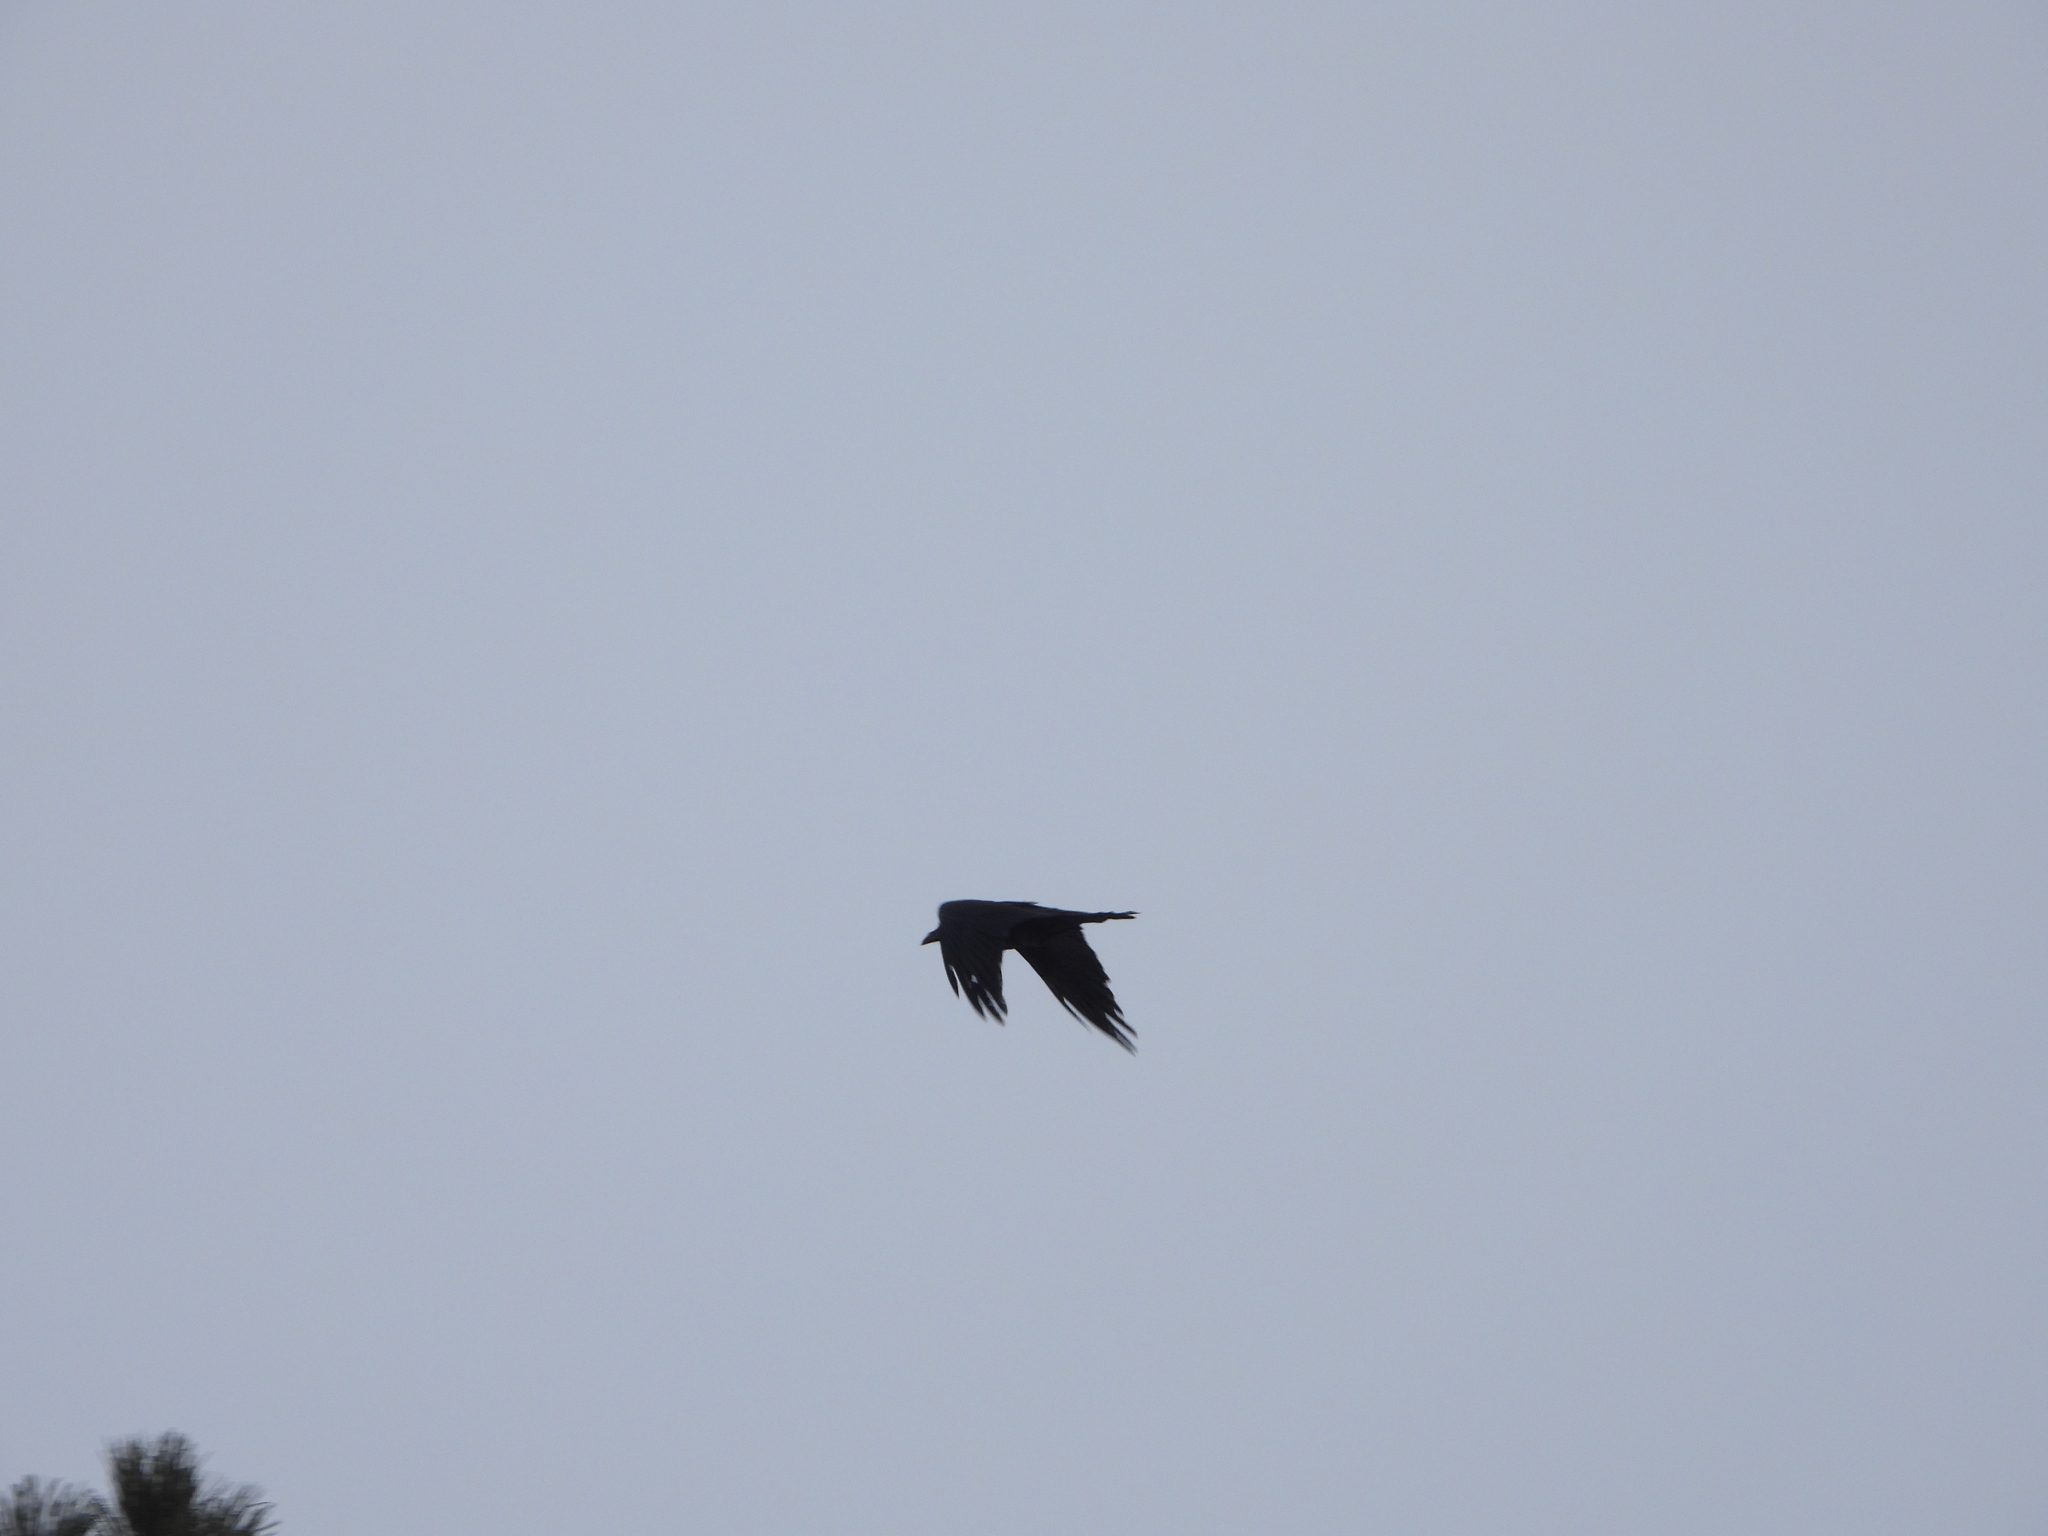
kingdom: Animalia
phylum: Chordata
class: Aves
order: Passeriformes
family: Corvidae
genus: Corvus
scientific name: Corvus corax
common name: Common raven
